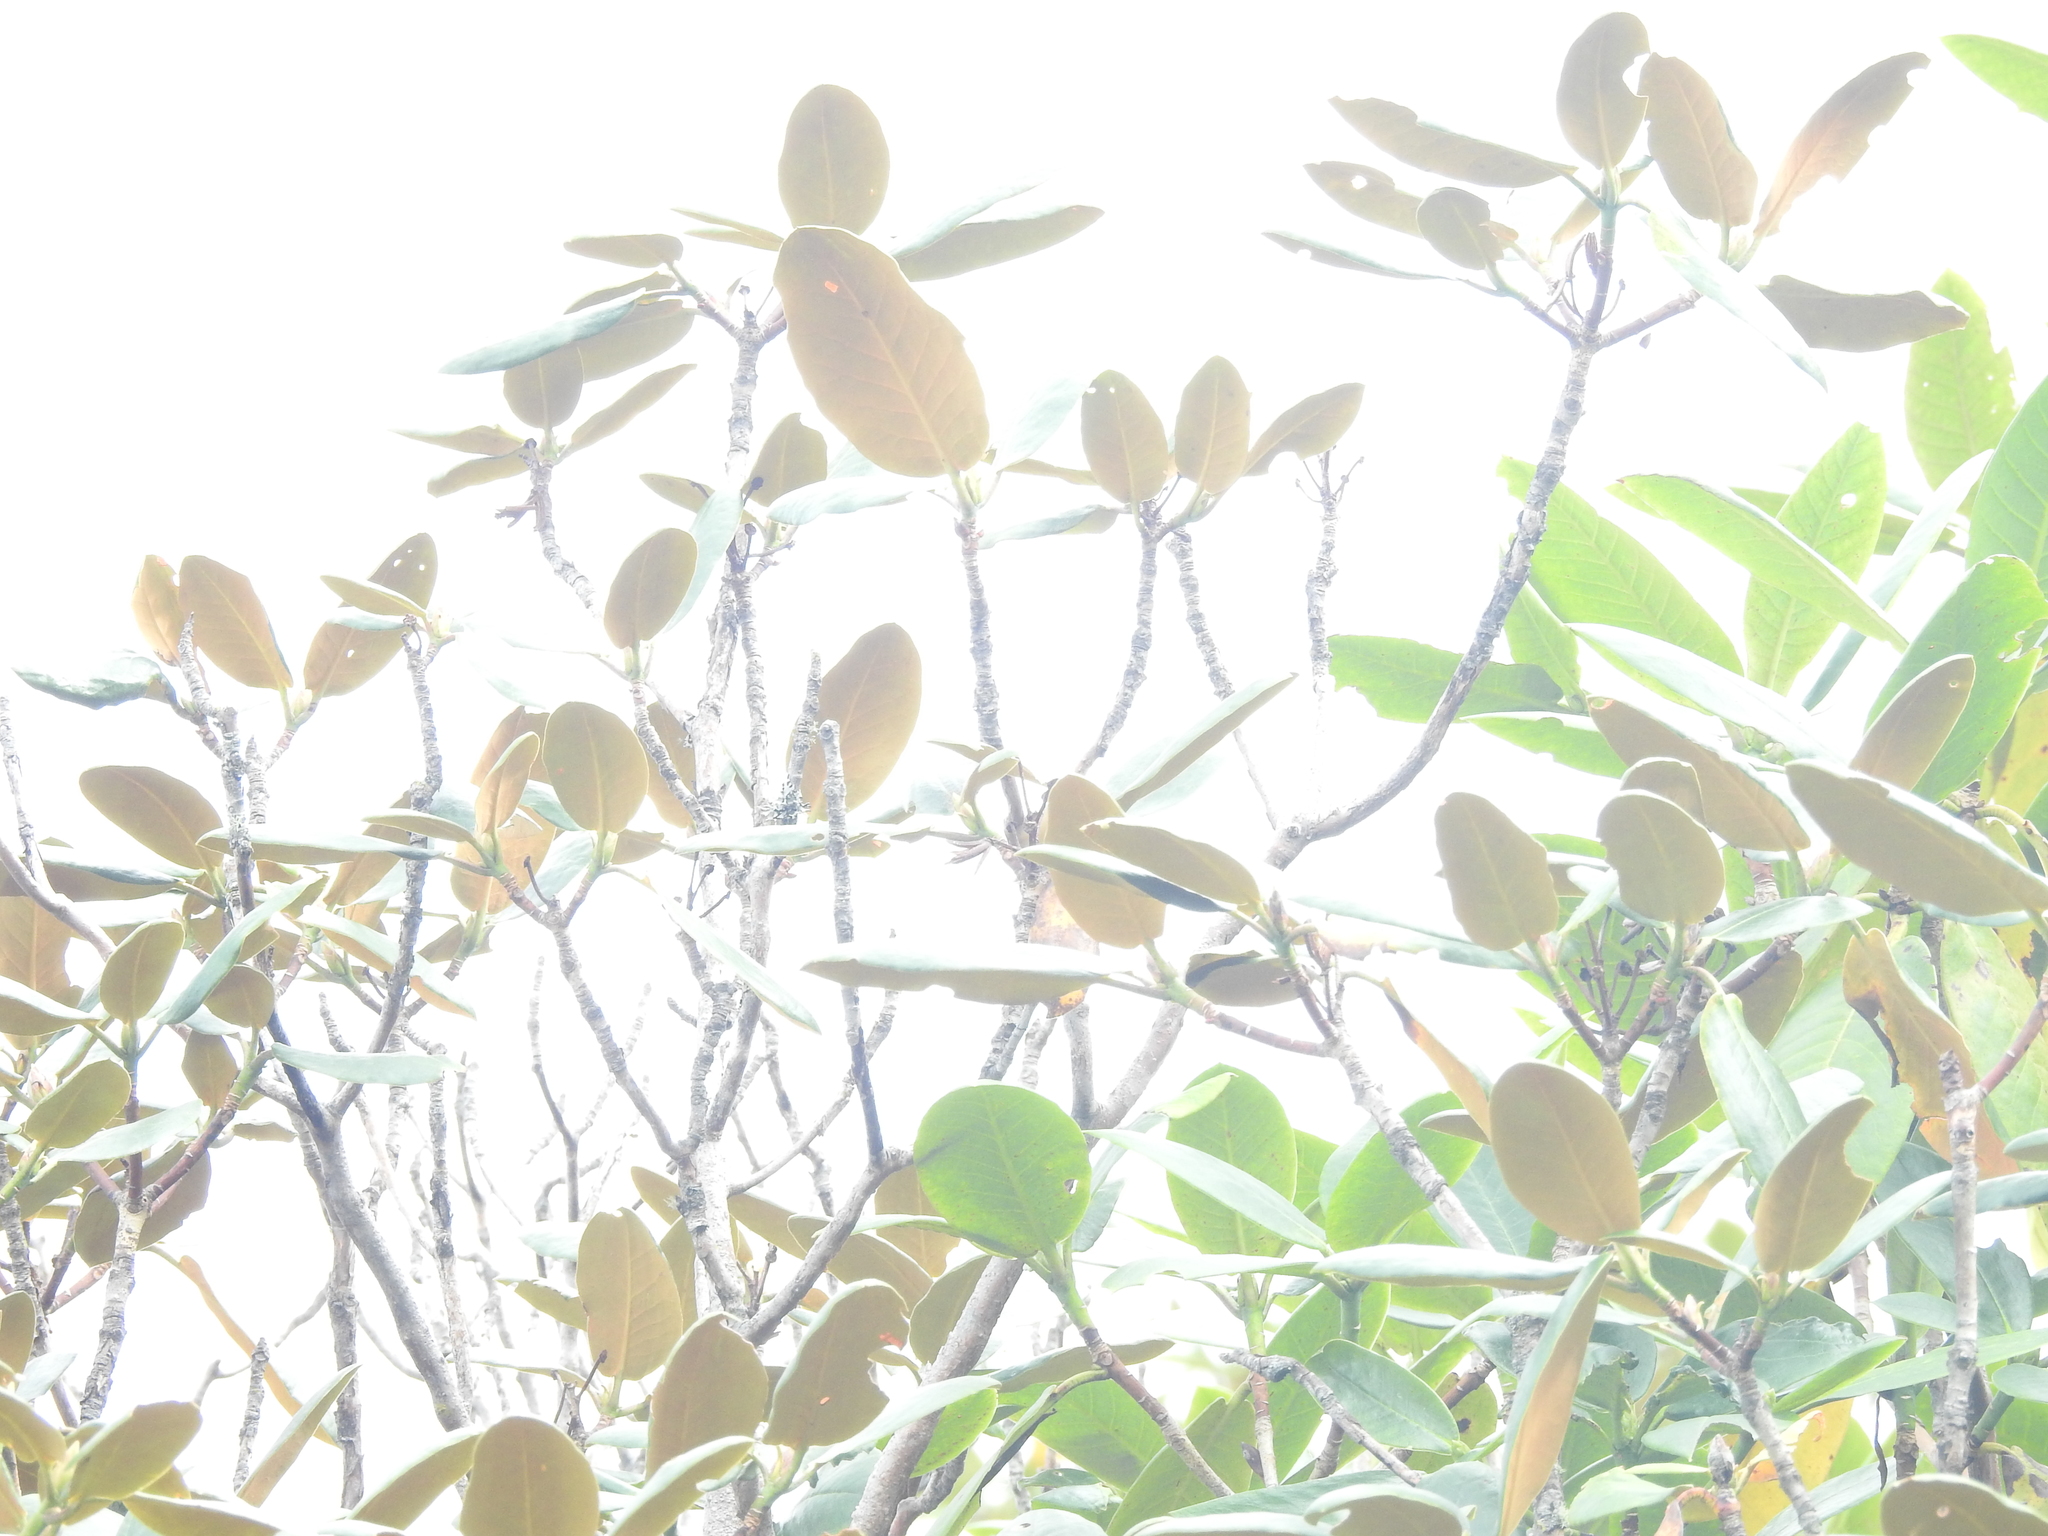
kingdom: Animalia
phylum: Chordata
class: Aves
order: Passeriformes
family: Leiothrichidae
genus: Minla
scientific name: Minla strigula
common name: Chestnut-tailed minla
